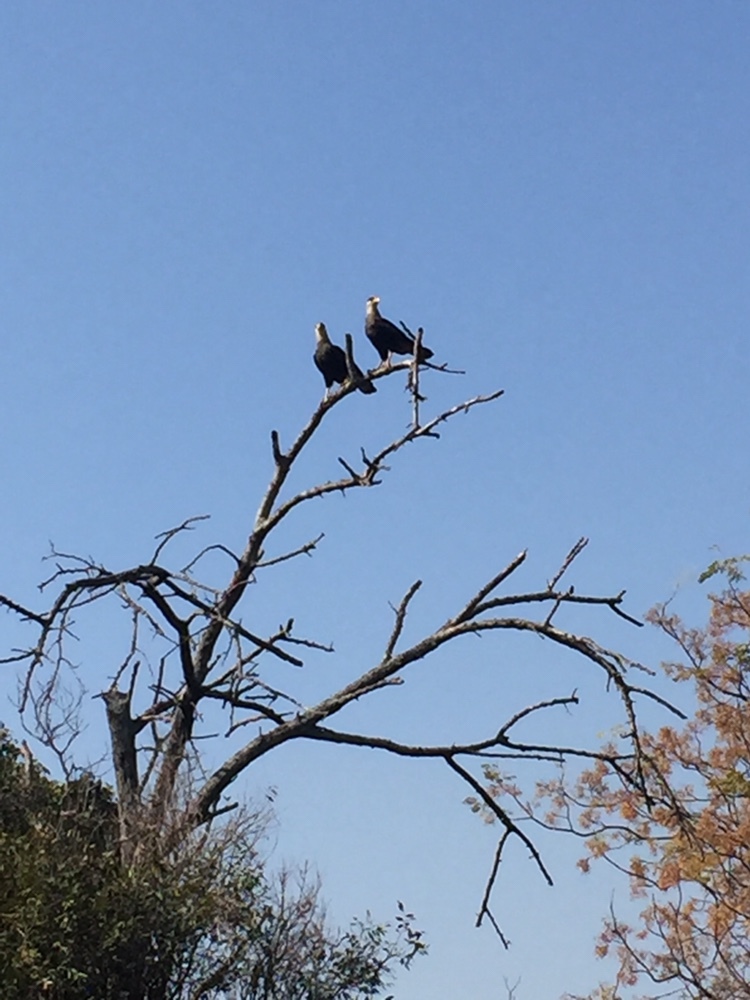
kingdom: Animalia
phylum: Chordata
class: Aves
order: Falconiformes
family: Falconidae
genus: Caracara
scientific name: Caracara plancus
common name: Southern caracara
